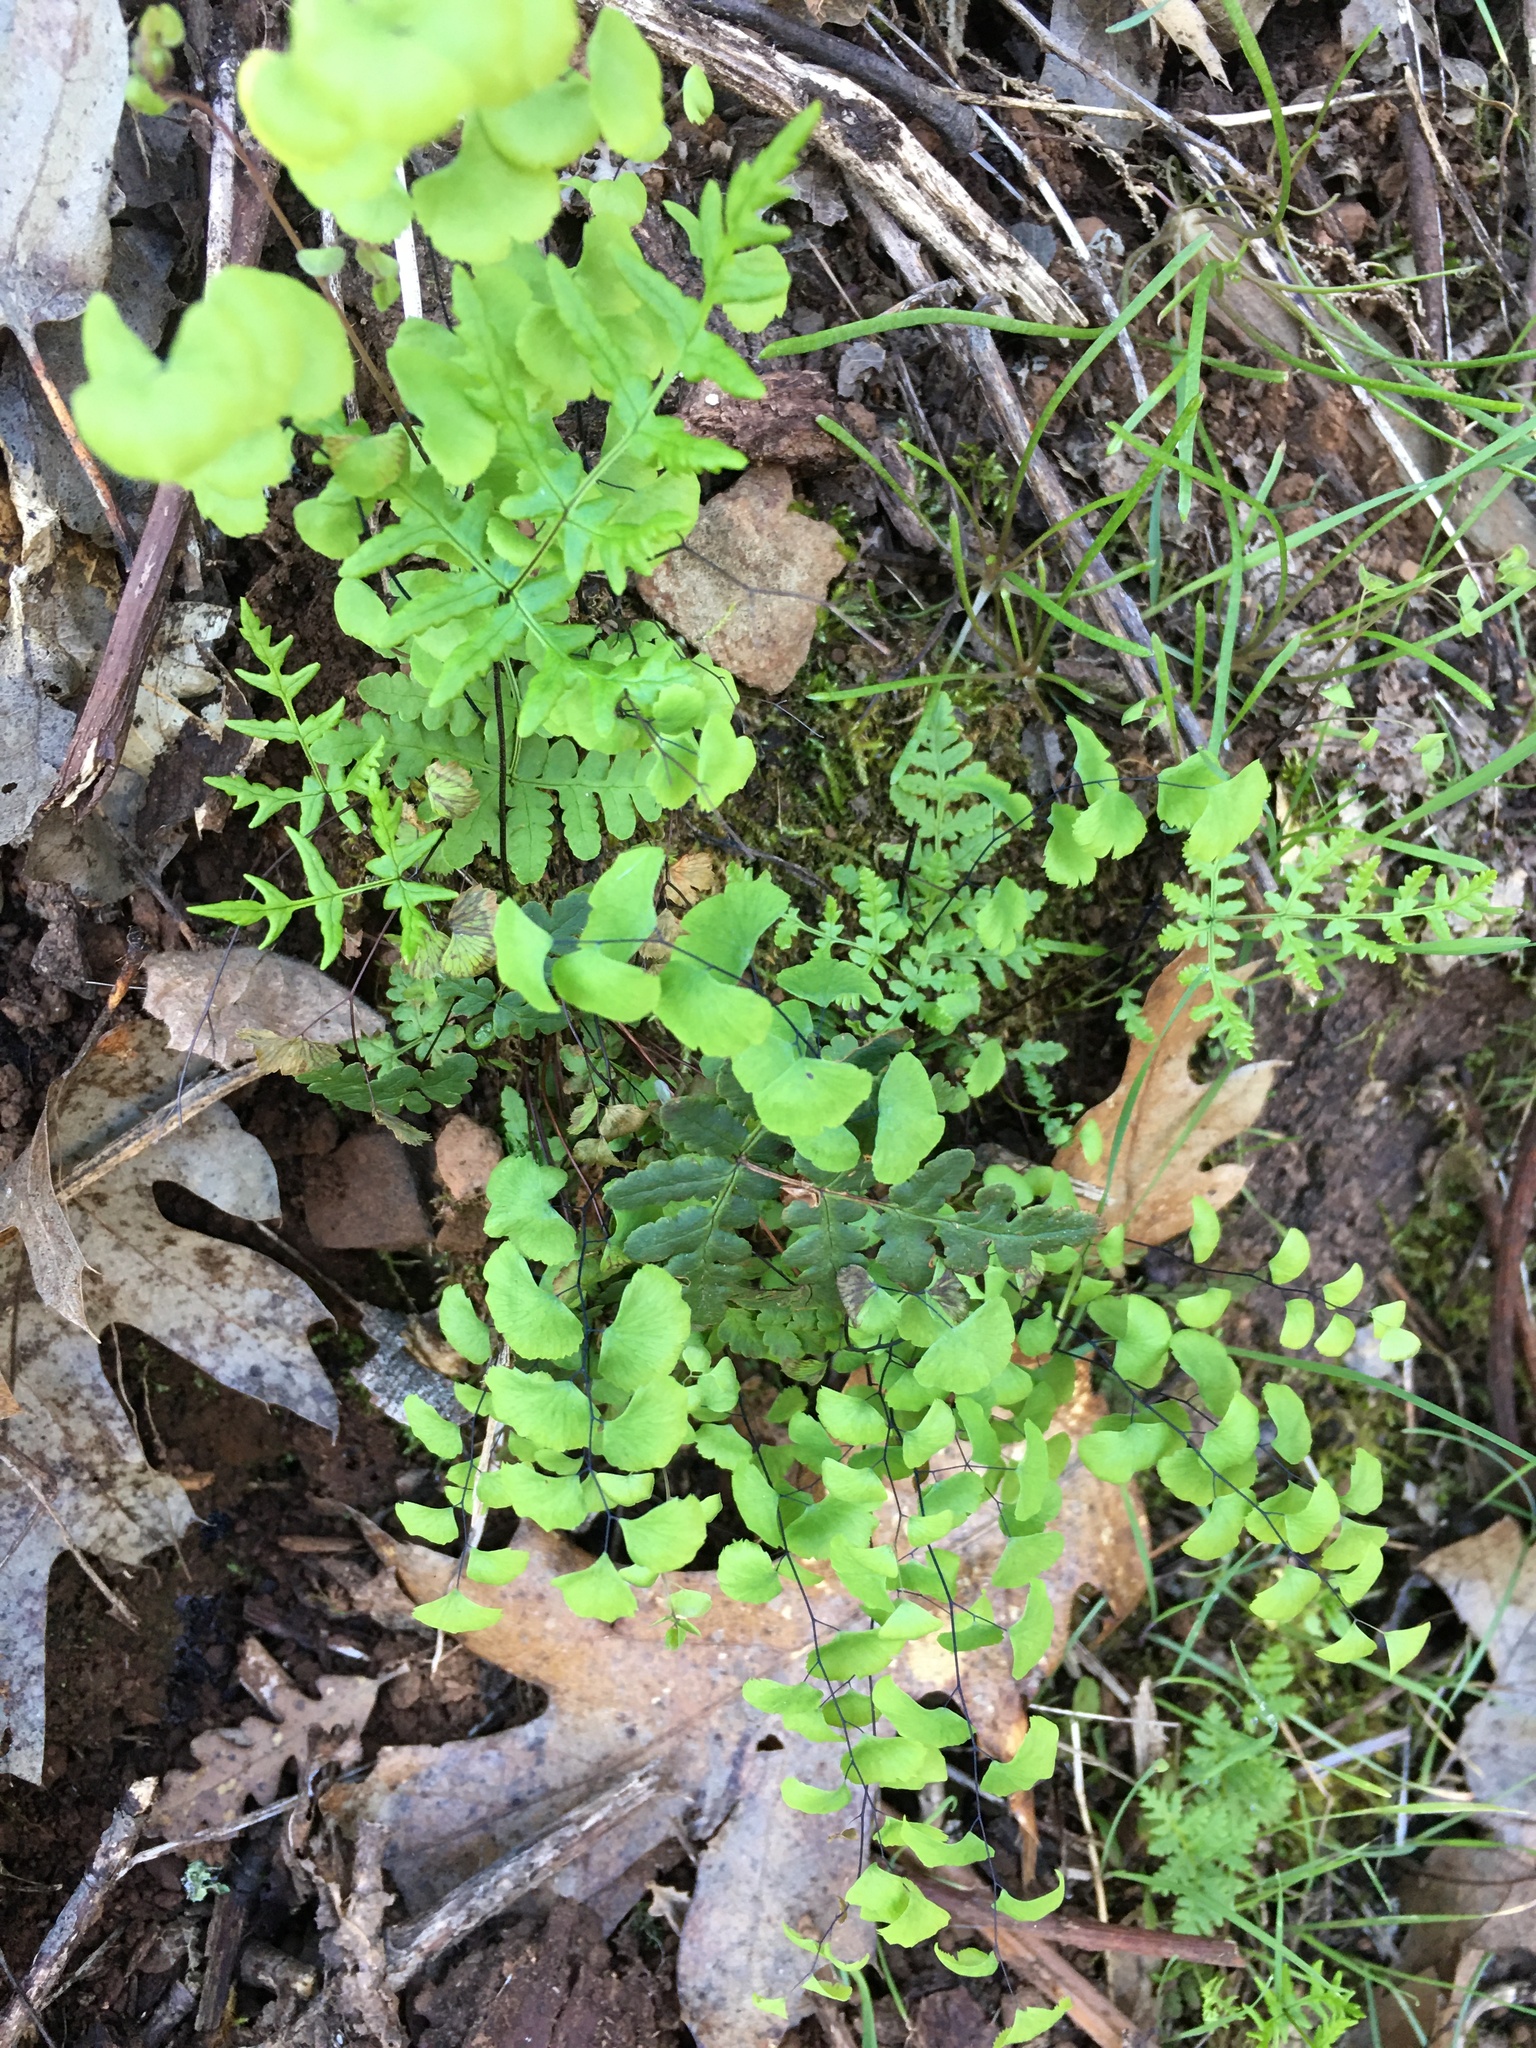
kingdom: Plantae
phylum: Tracheophyta
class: Polypodiopsida
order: Polypodiales
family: Pteridaceae
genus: Adiantum
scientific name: Adiantum jordanii
